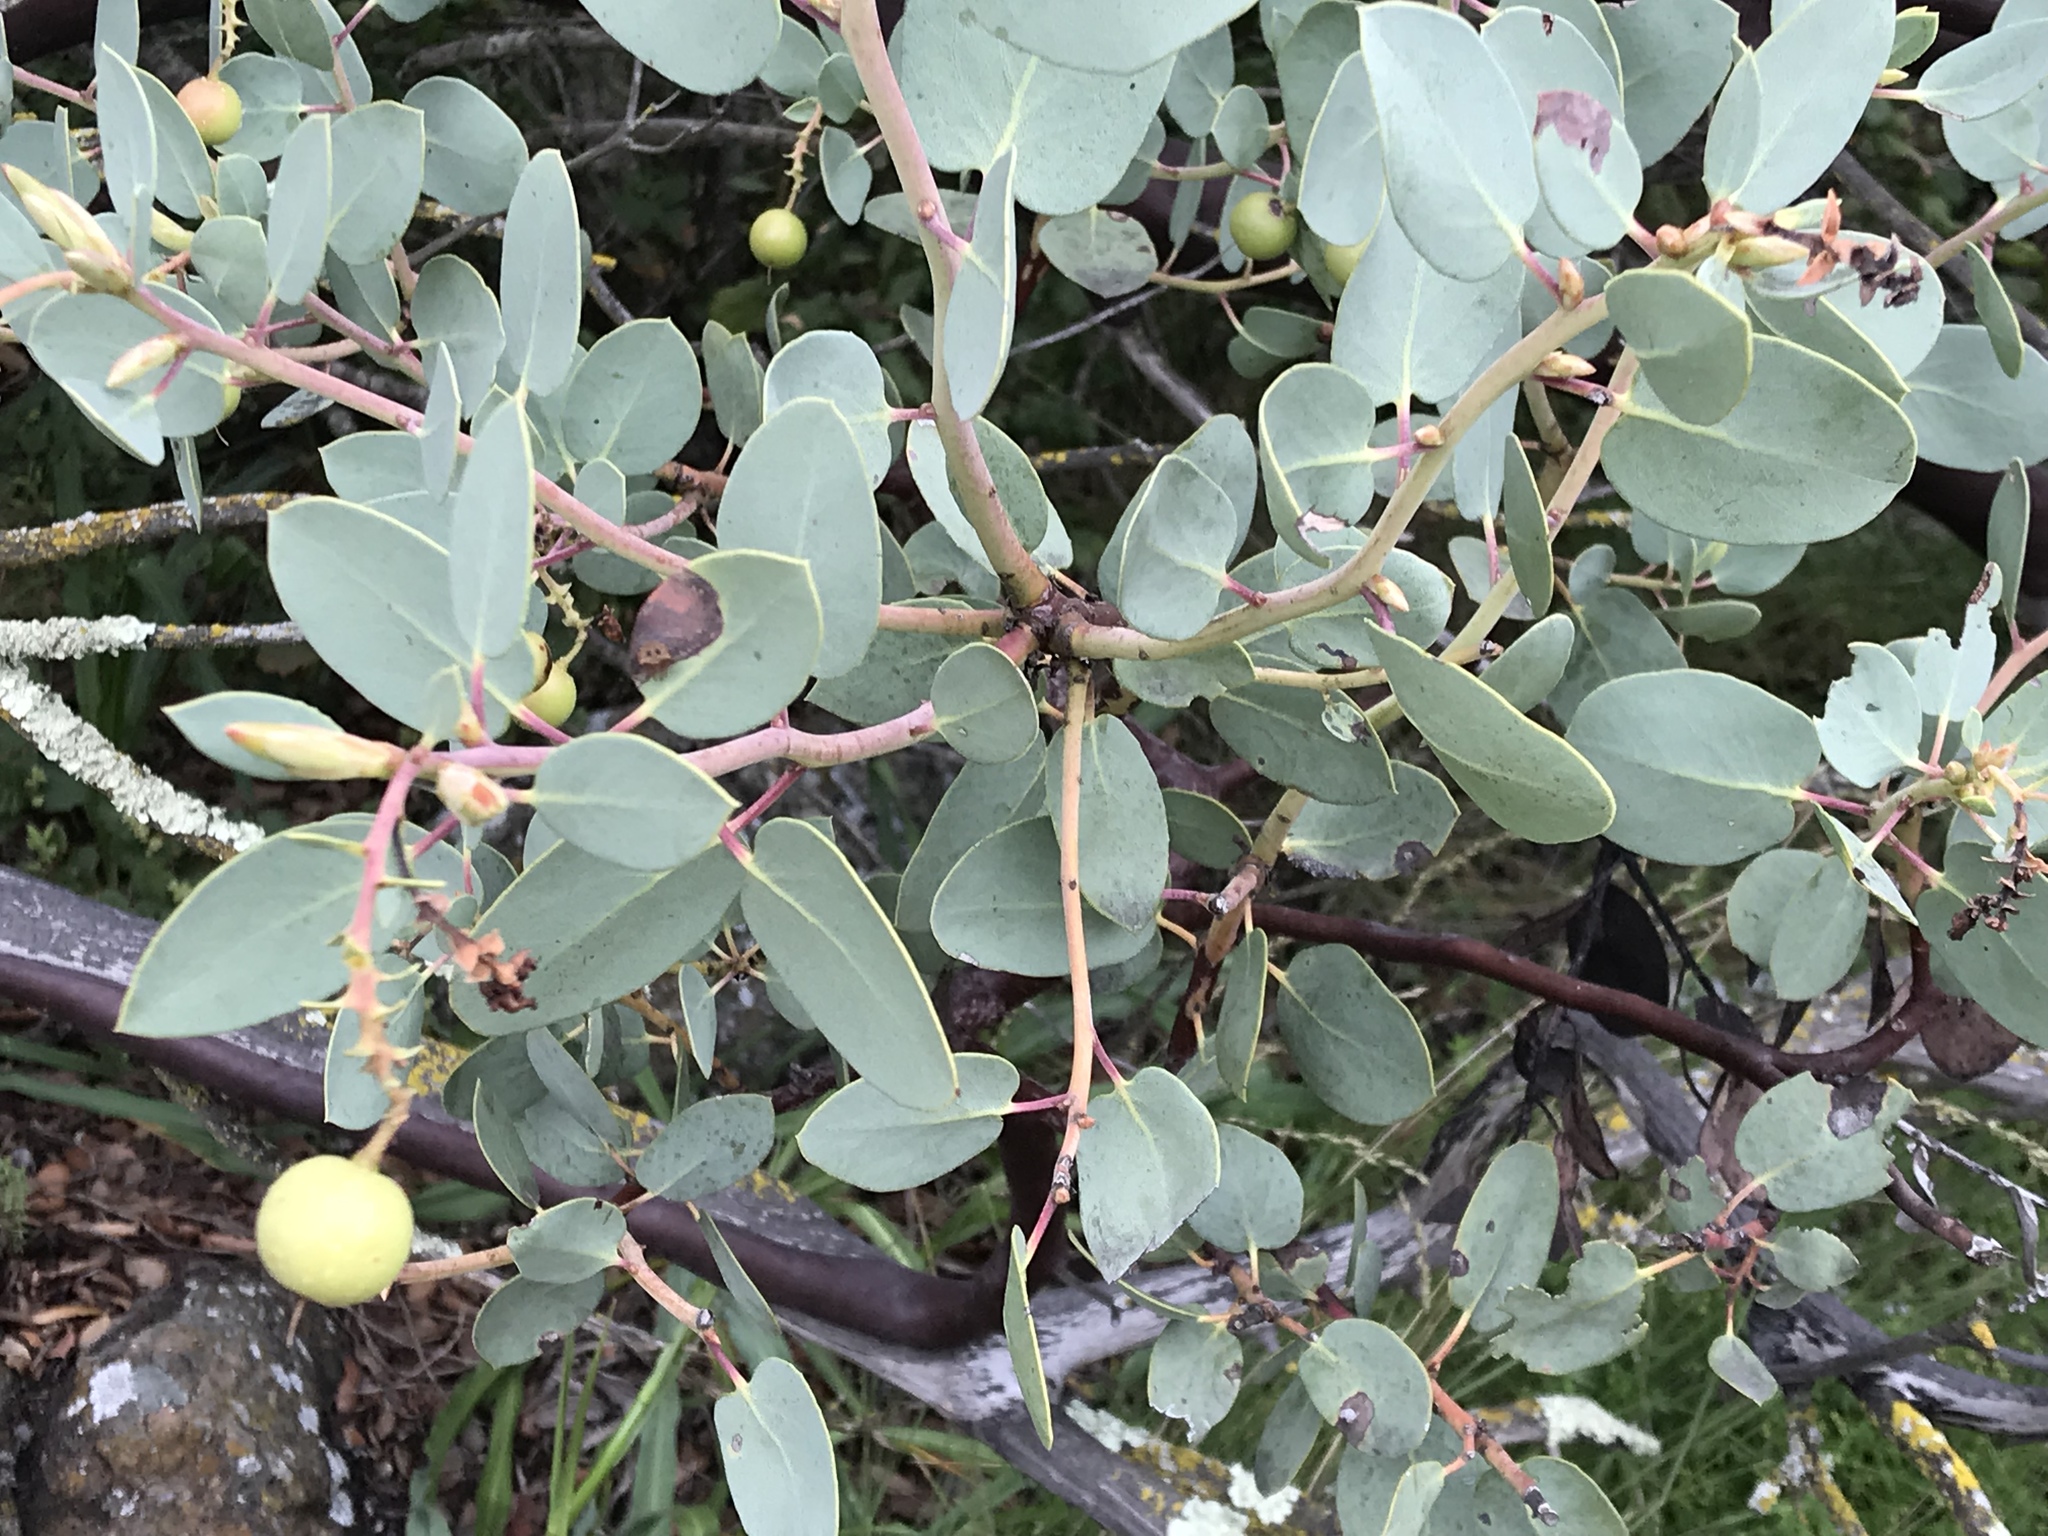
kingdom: Plantae
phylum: Tracheophyta
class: Magnoliopsida
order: Ericales
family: Ericaceae
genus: Arctostaphylos
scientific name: Arctostaphylos glauca
